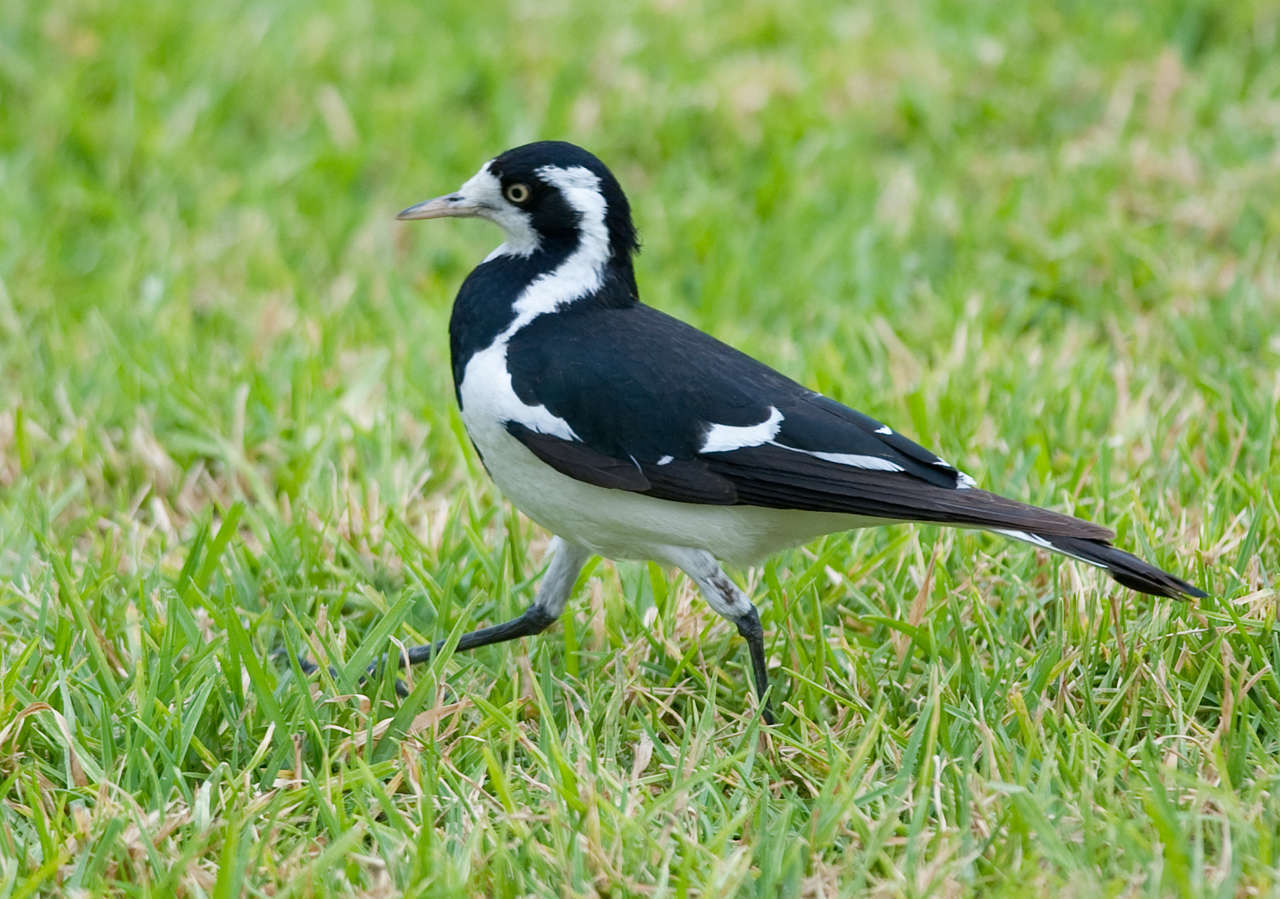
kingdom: Animalia
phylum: Chordata
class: Aves
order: Passeriformes
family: Monarchidae
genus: Grallina
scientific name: Grallina cyanoleuca
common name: Magpie-lark
